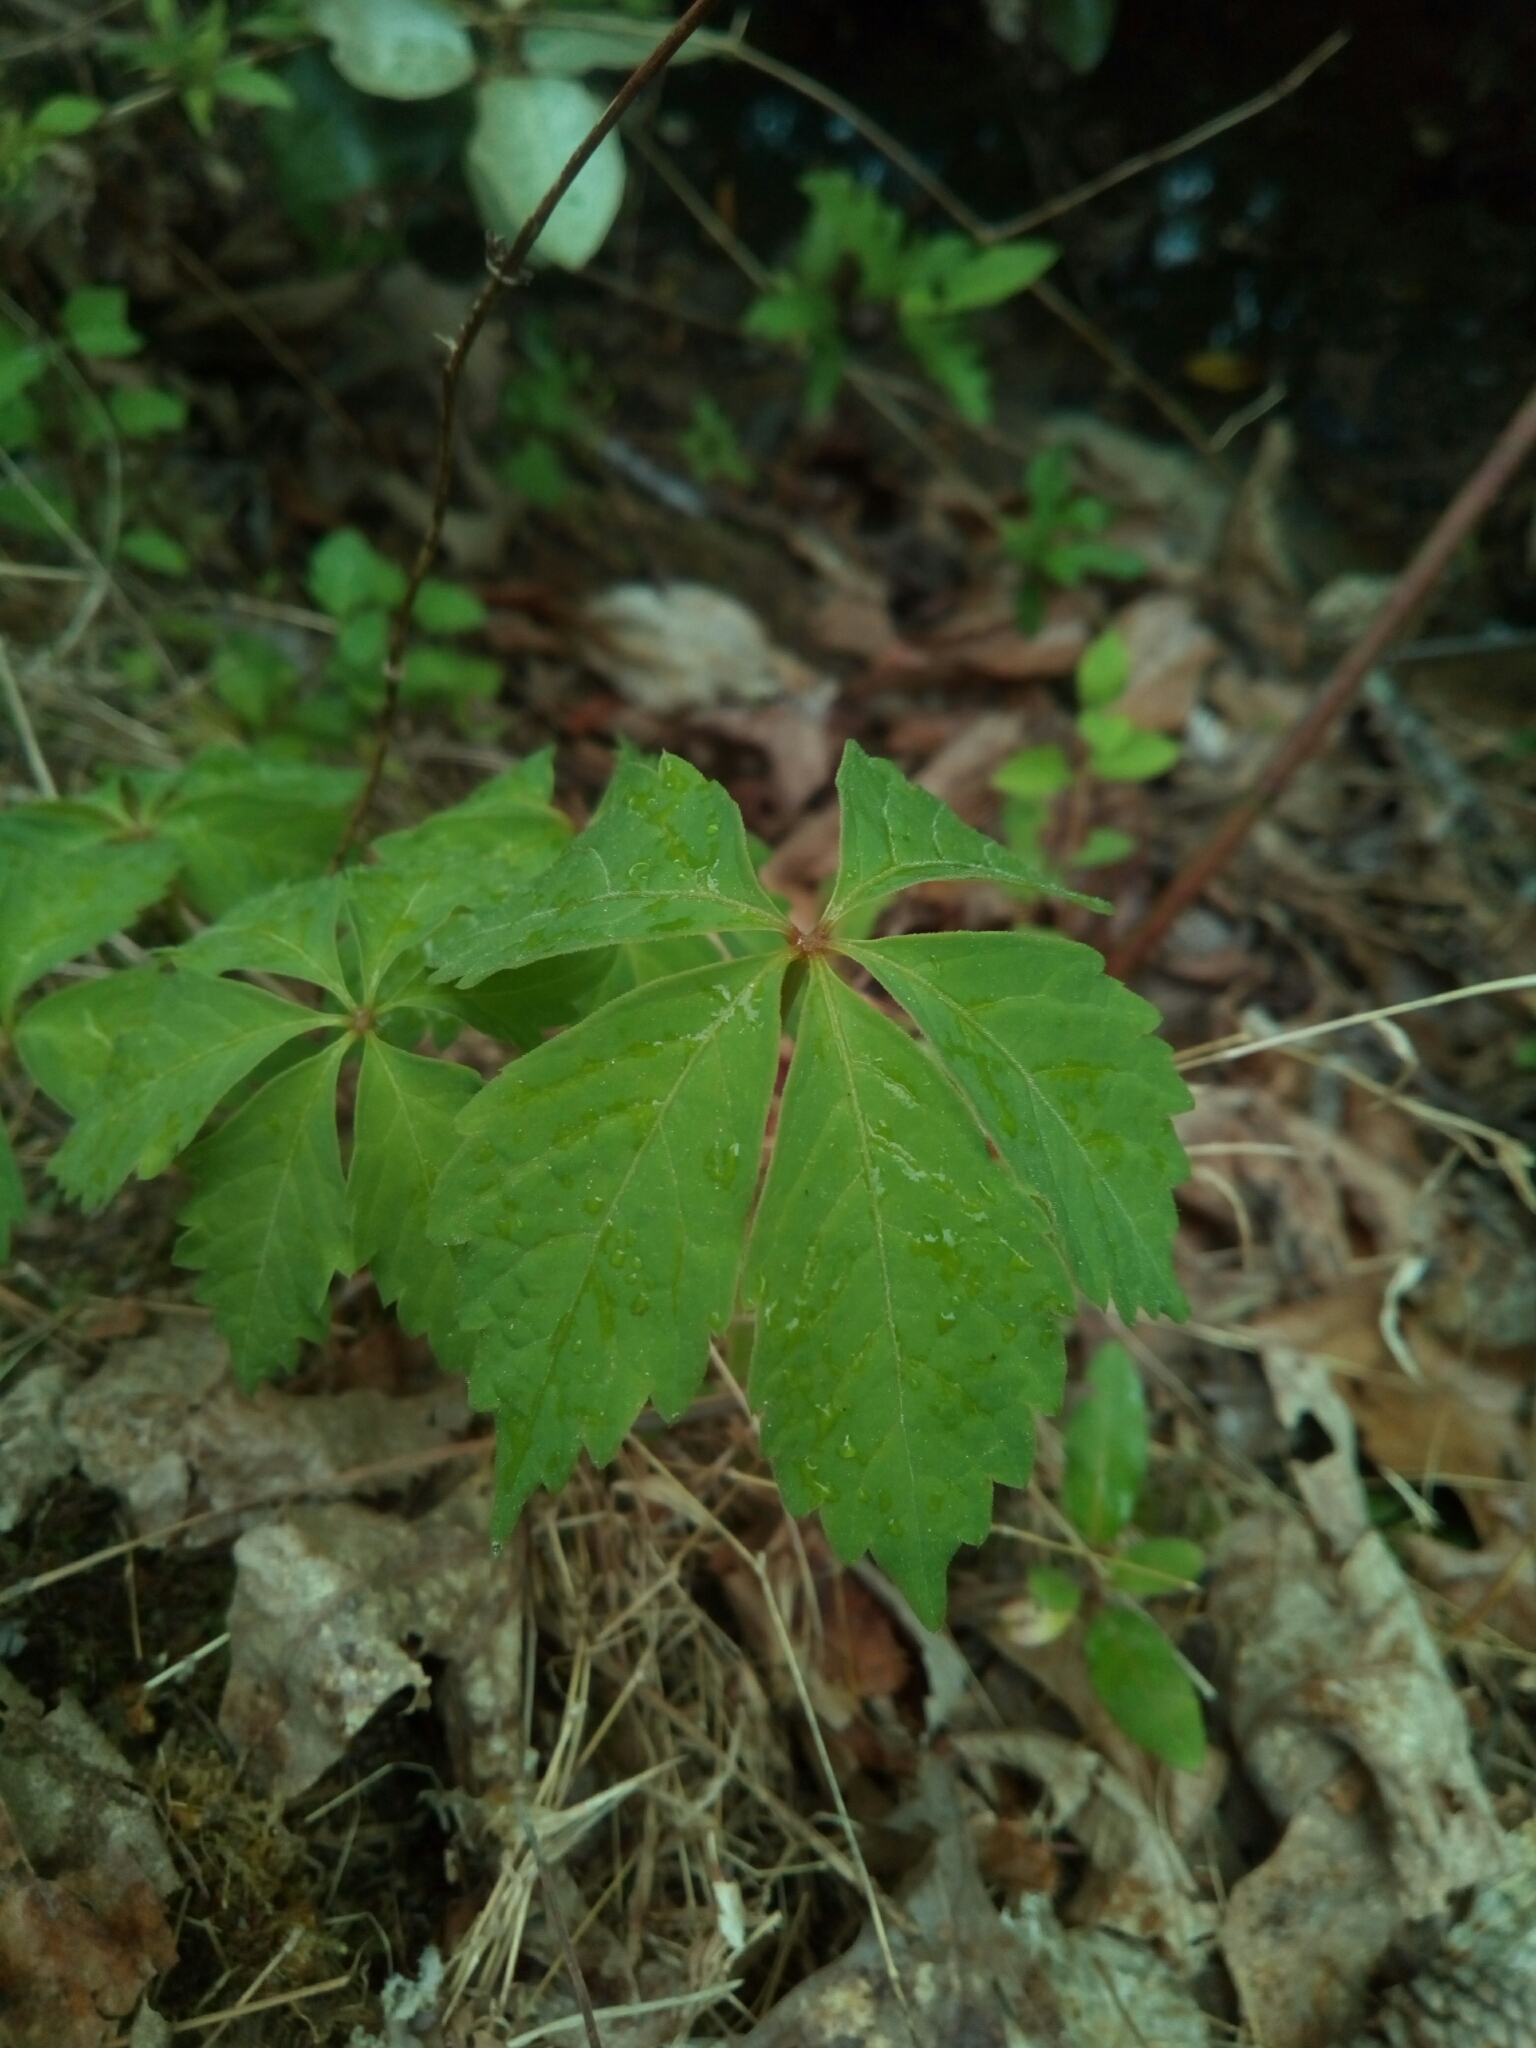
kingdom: Plantae
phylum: Tracheophyta
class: Magnoliopsida
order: Vitales
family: Vitaceae
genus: Parthenocissus
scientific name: Parthenocissus quinquefolia
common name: Virginia-creeper
